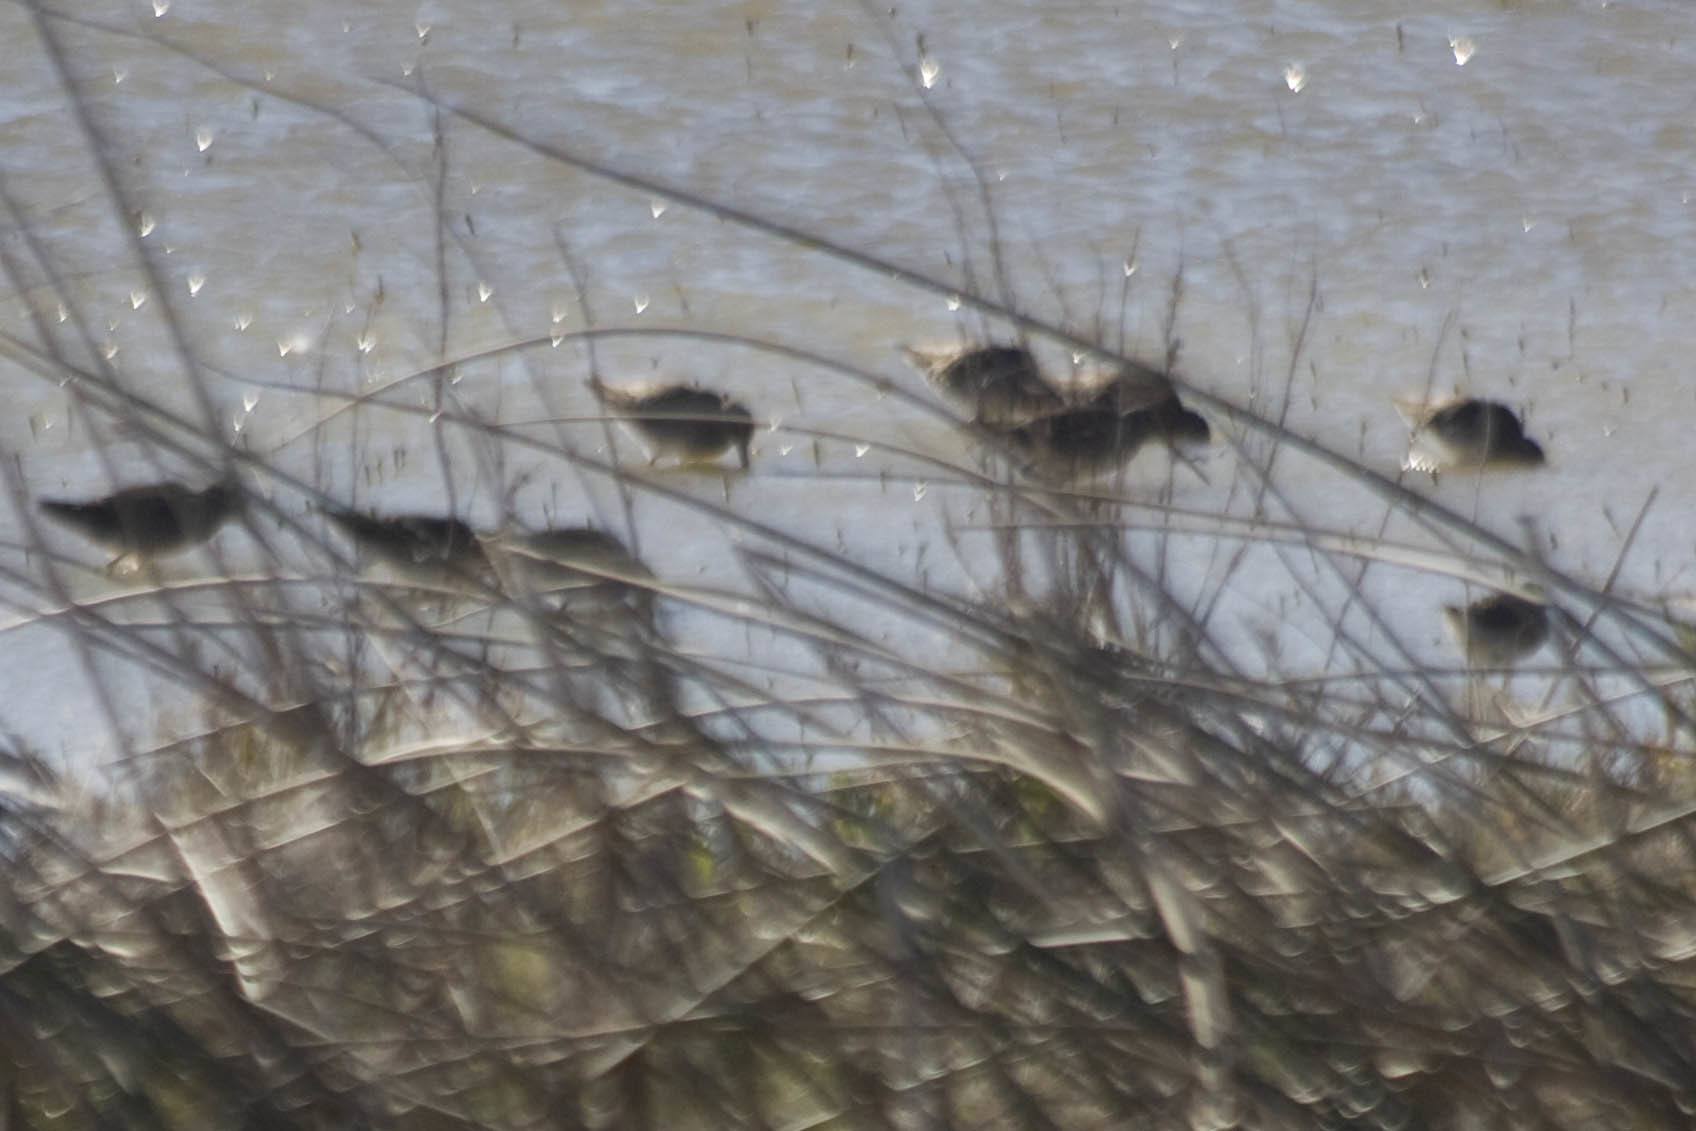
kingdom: Animalia
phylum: Chordata
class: Aves
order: Charadriiformes
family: Scolopacidae
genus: Limnodromus
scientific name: Limnodromus scolopaceus
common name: Long-billed dowitcher
